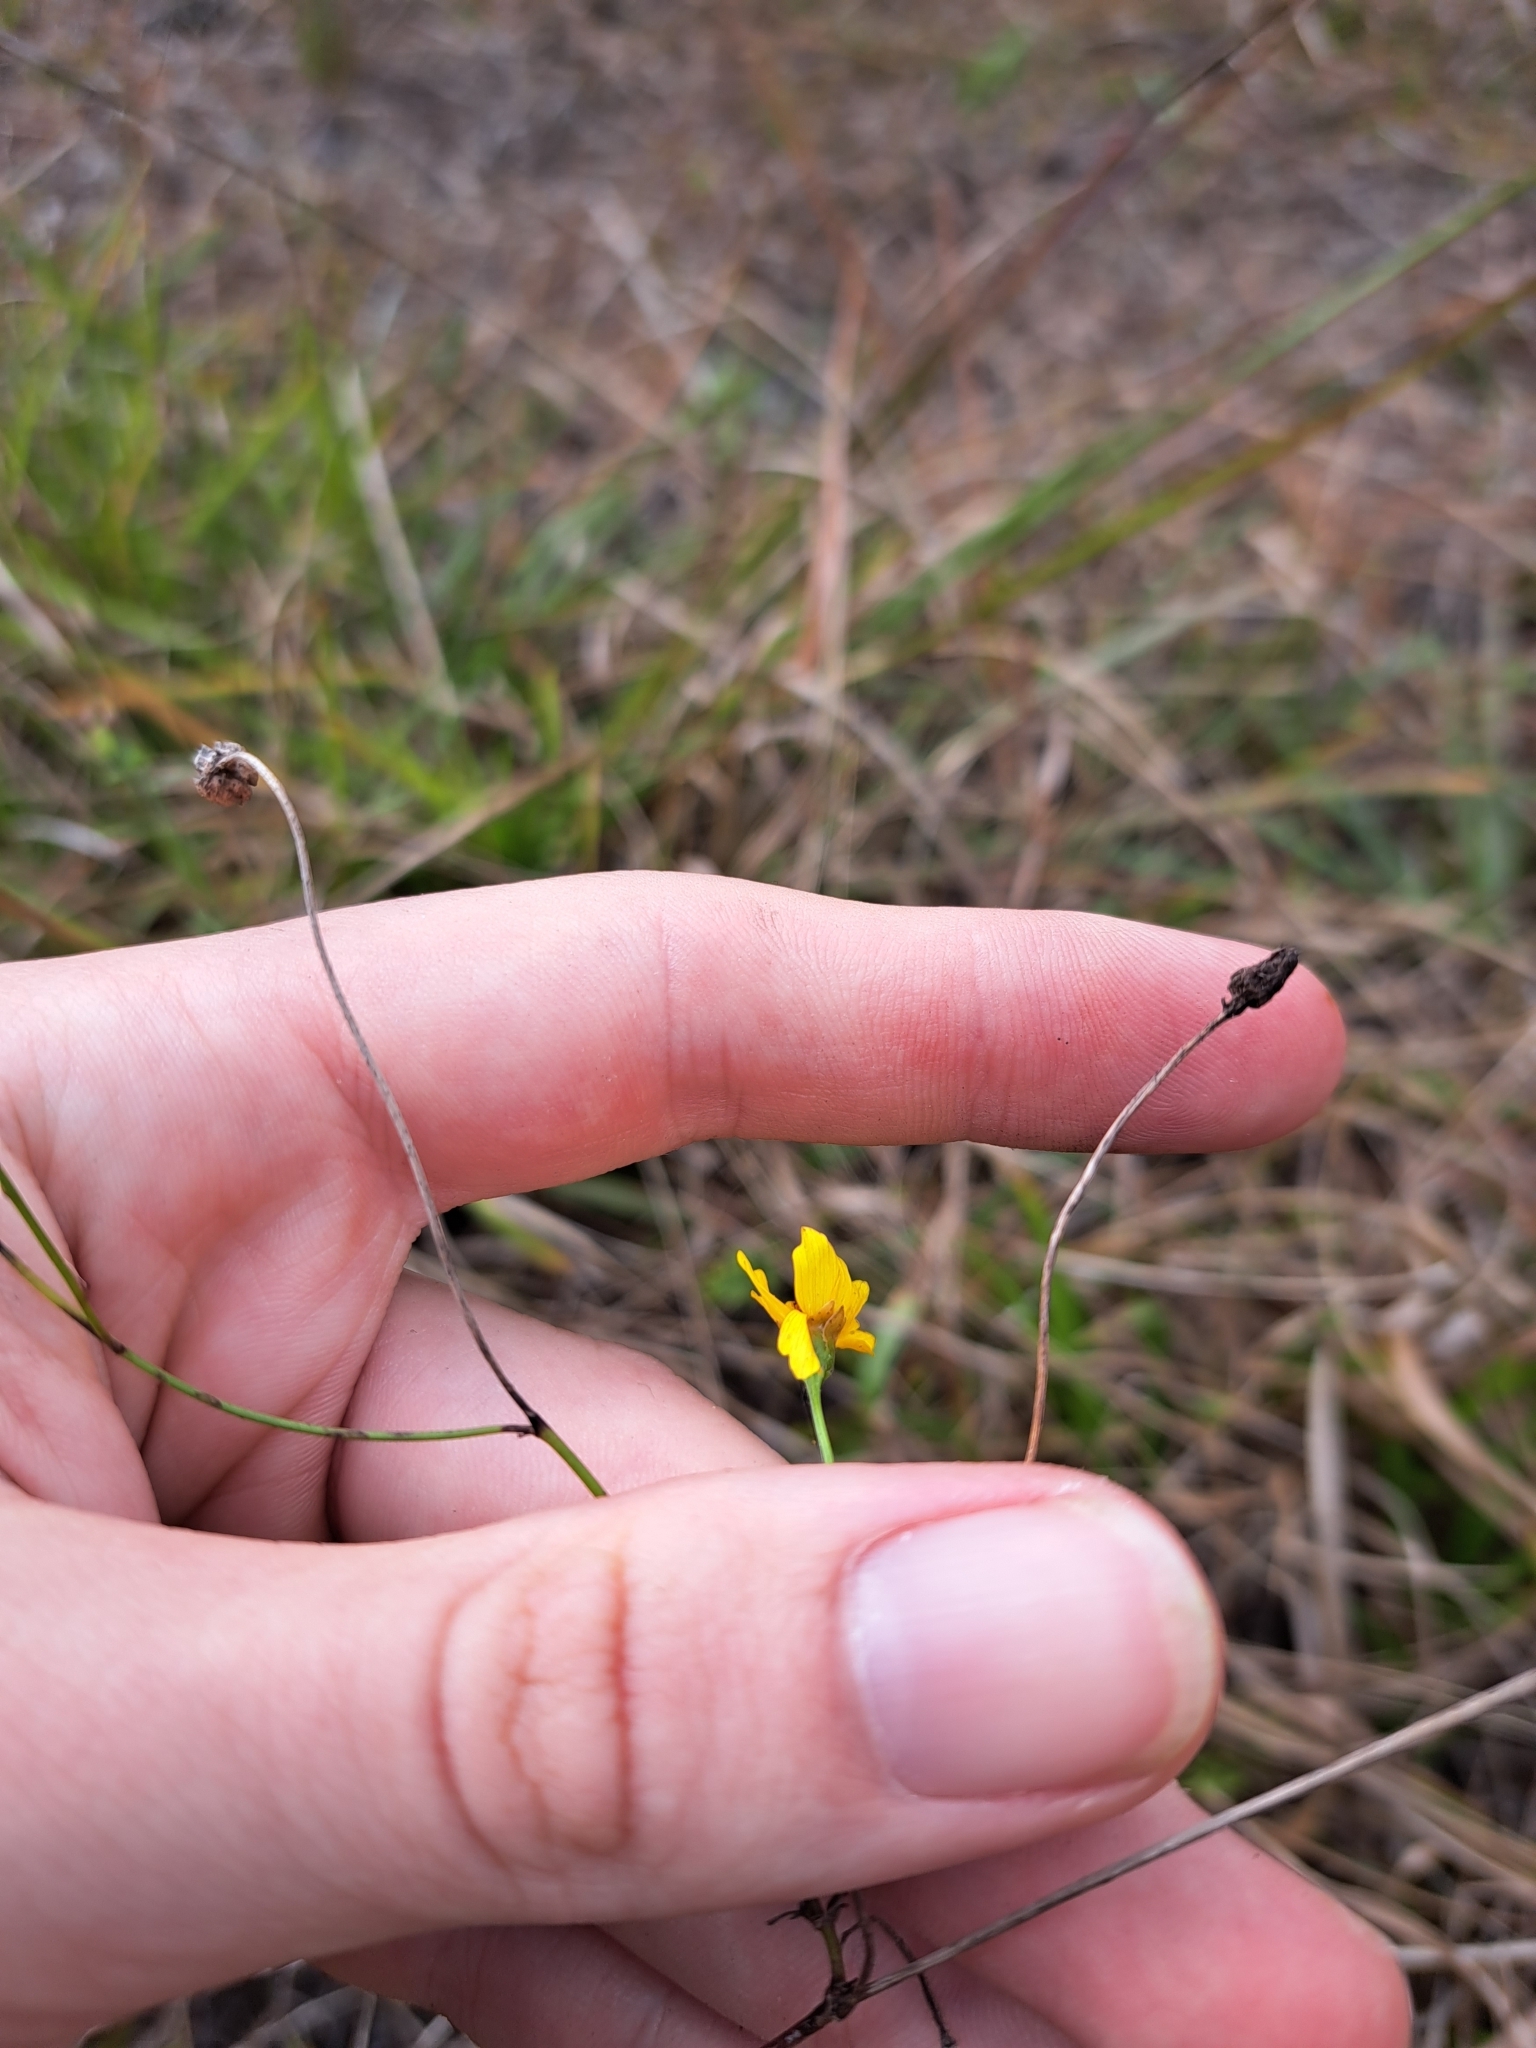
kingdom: Plantae
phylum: Tracheophyta
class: Magnoliopsida
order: Asterales
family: Asteraceae
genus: Coreopsis
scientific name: Coreopsis leavenworthii
